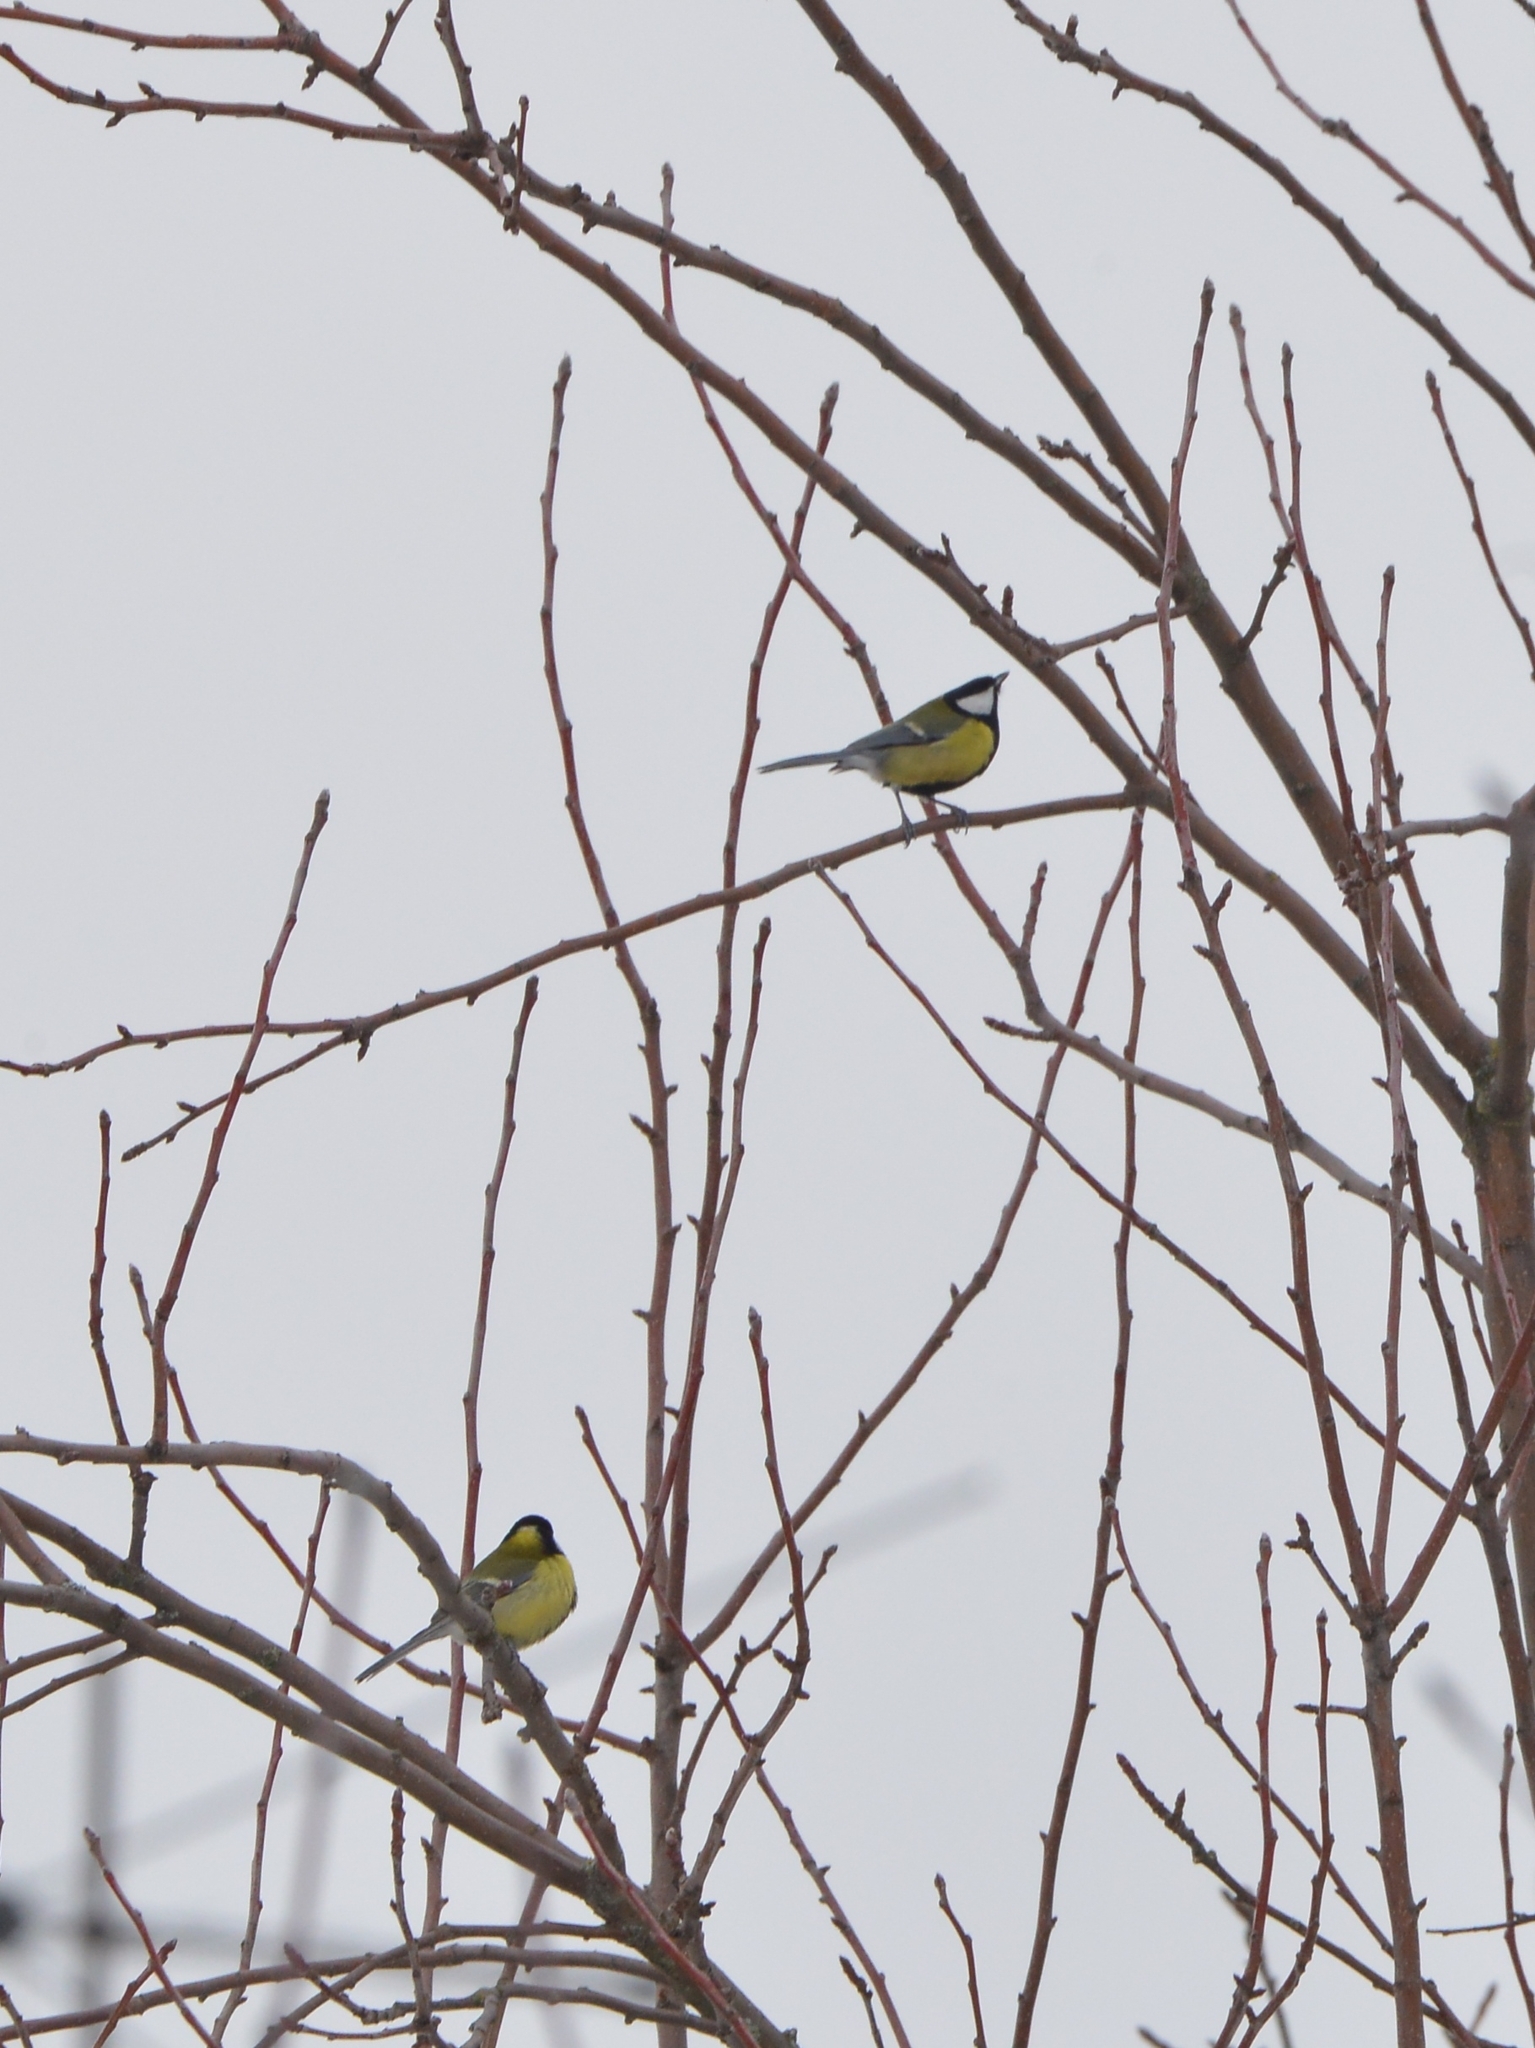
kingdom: Animalia
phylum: Chordata
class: Aves
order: Passeriformes
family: Paridae
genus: Parus
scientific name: Parus major
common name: Great tit
